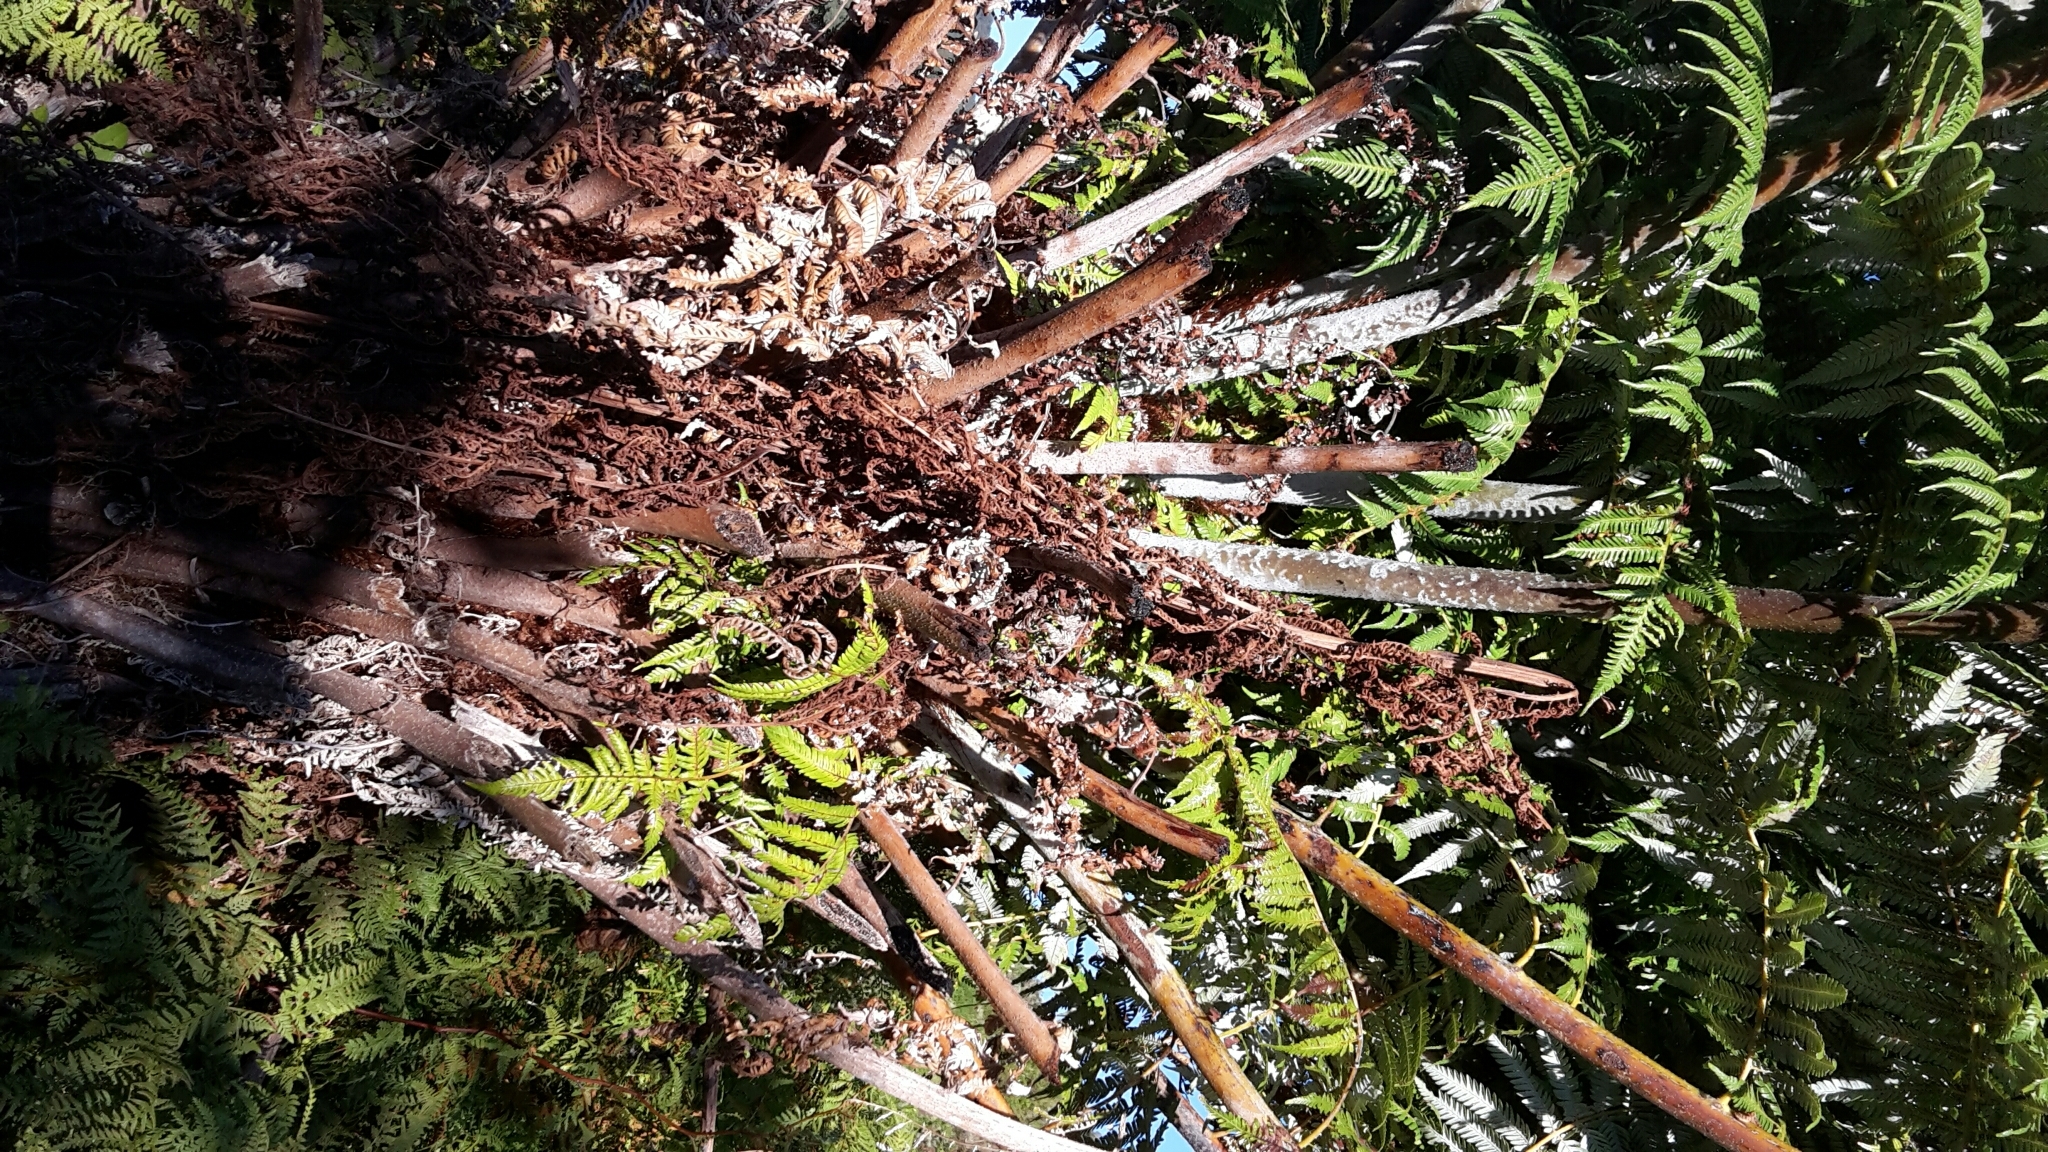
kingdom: Plantae
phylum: Tracheophyta
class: Polypodiopsida
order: Cyatheales
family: Cyatheaceae
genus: Alsophila
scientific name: Alsophila dealbata
